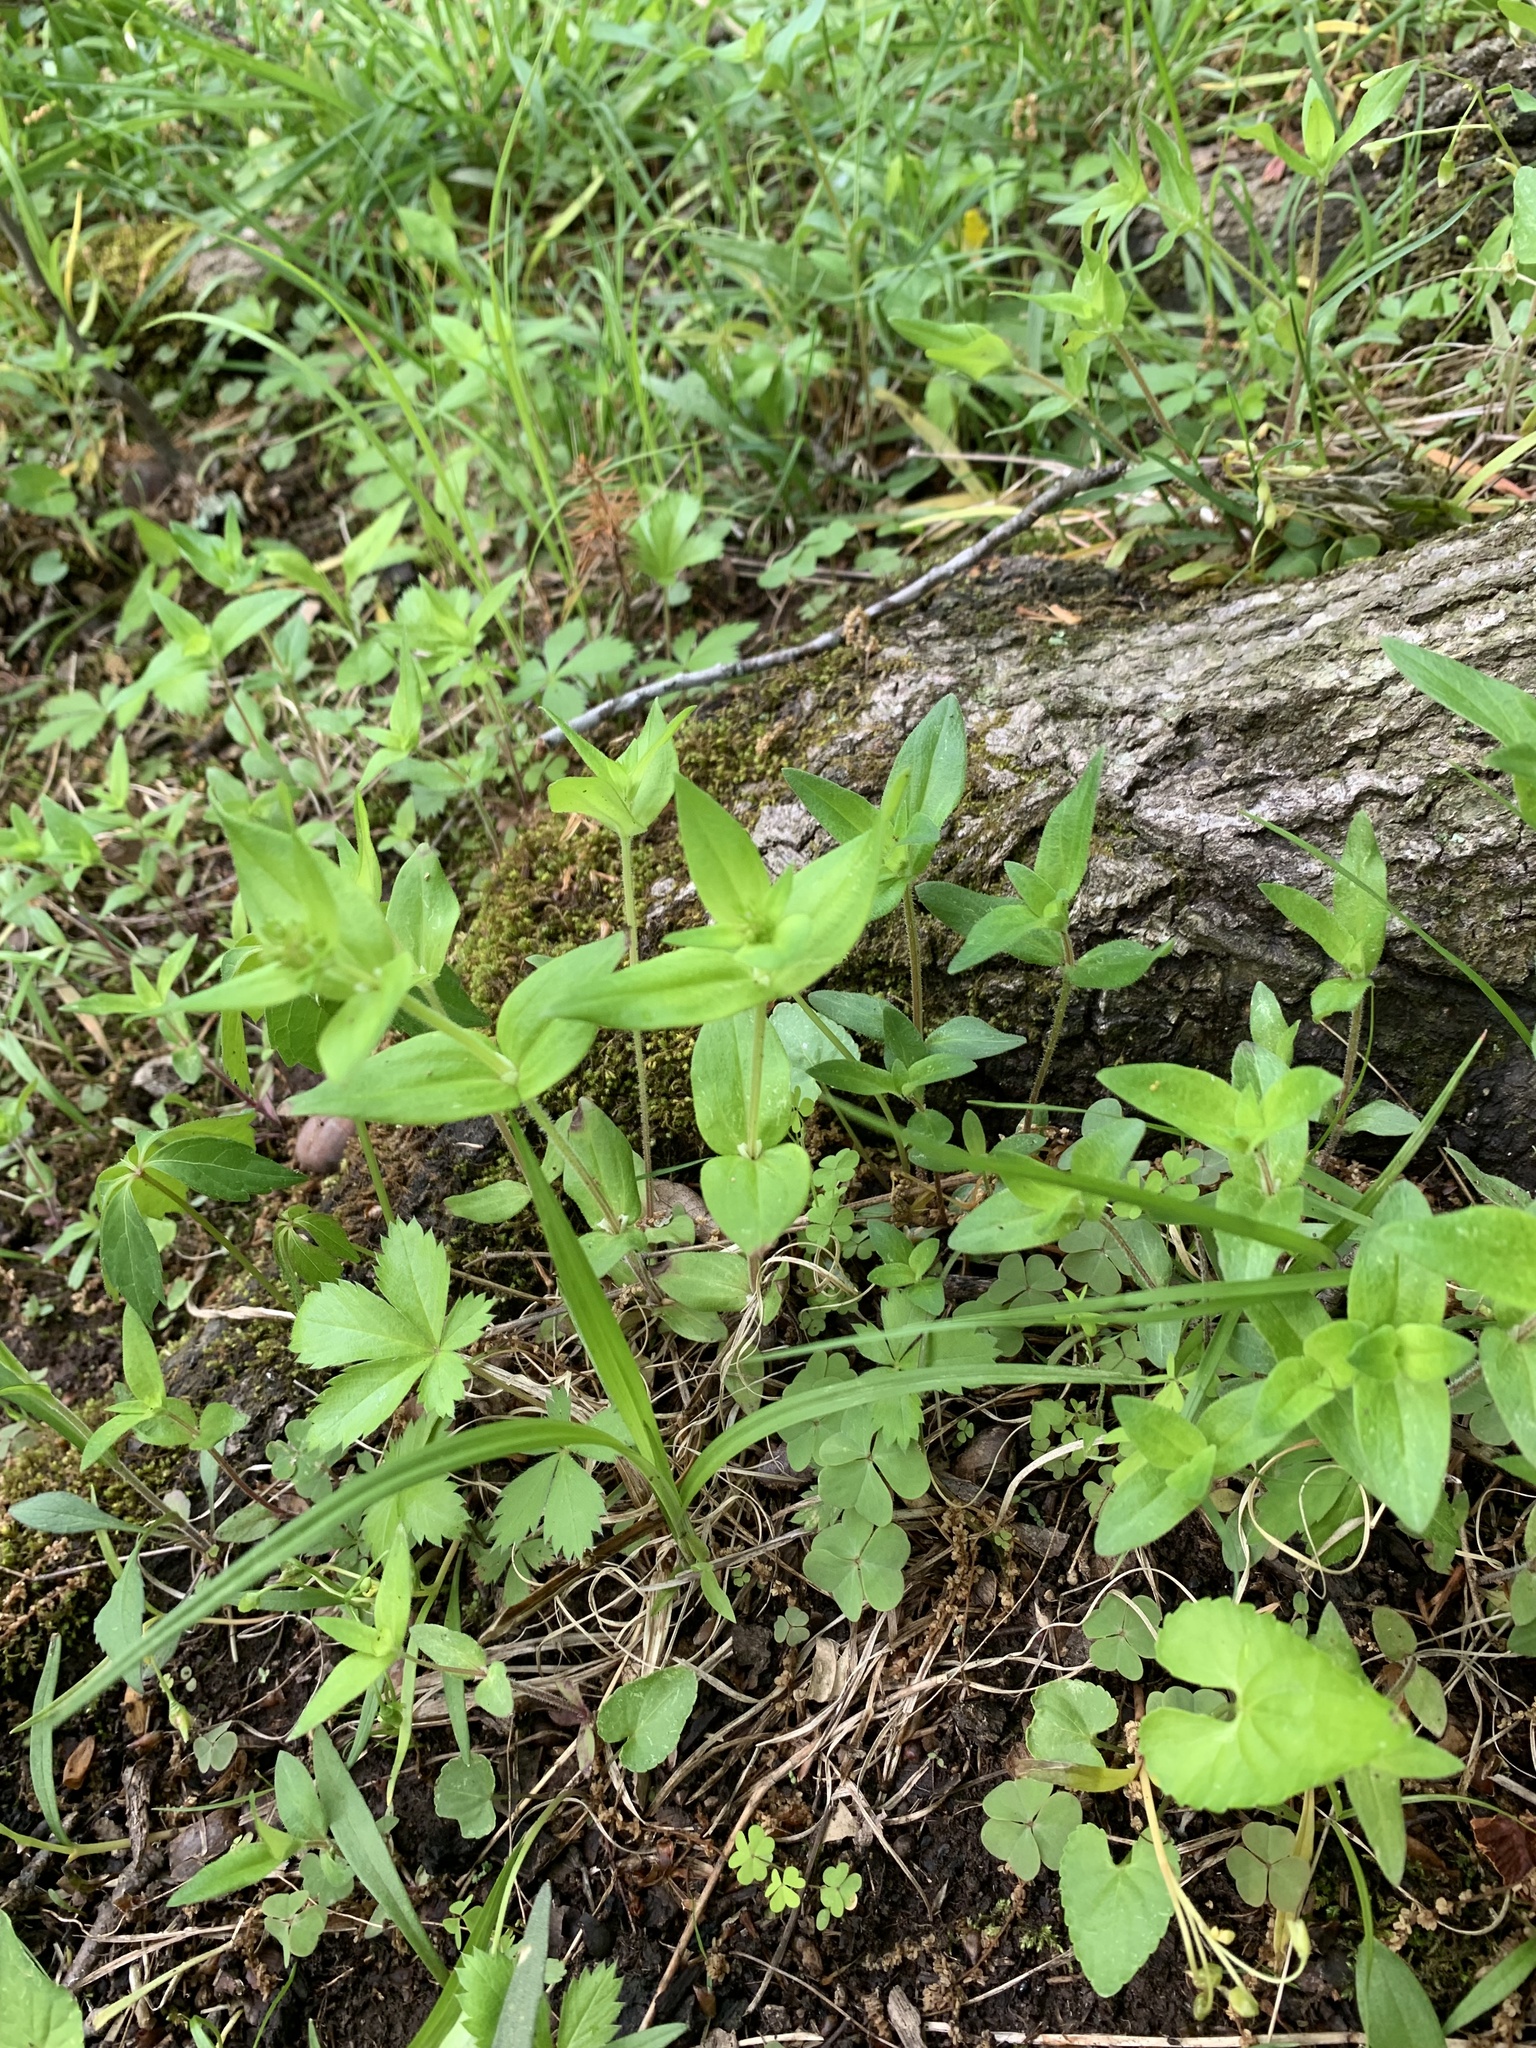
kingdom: Plantae
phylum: Tracheophyta
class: Magnoliopsida
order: Gentianales
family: Rubiaceae
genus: Houstonia
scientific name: Houstonia purpurea
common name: Summer bluet
